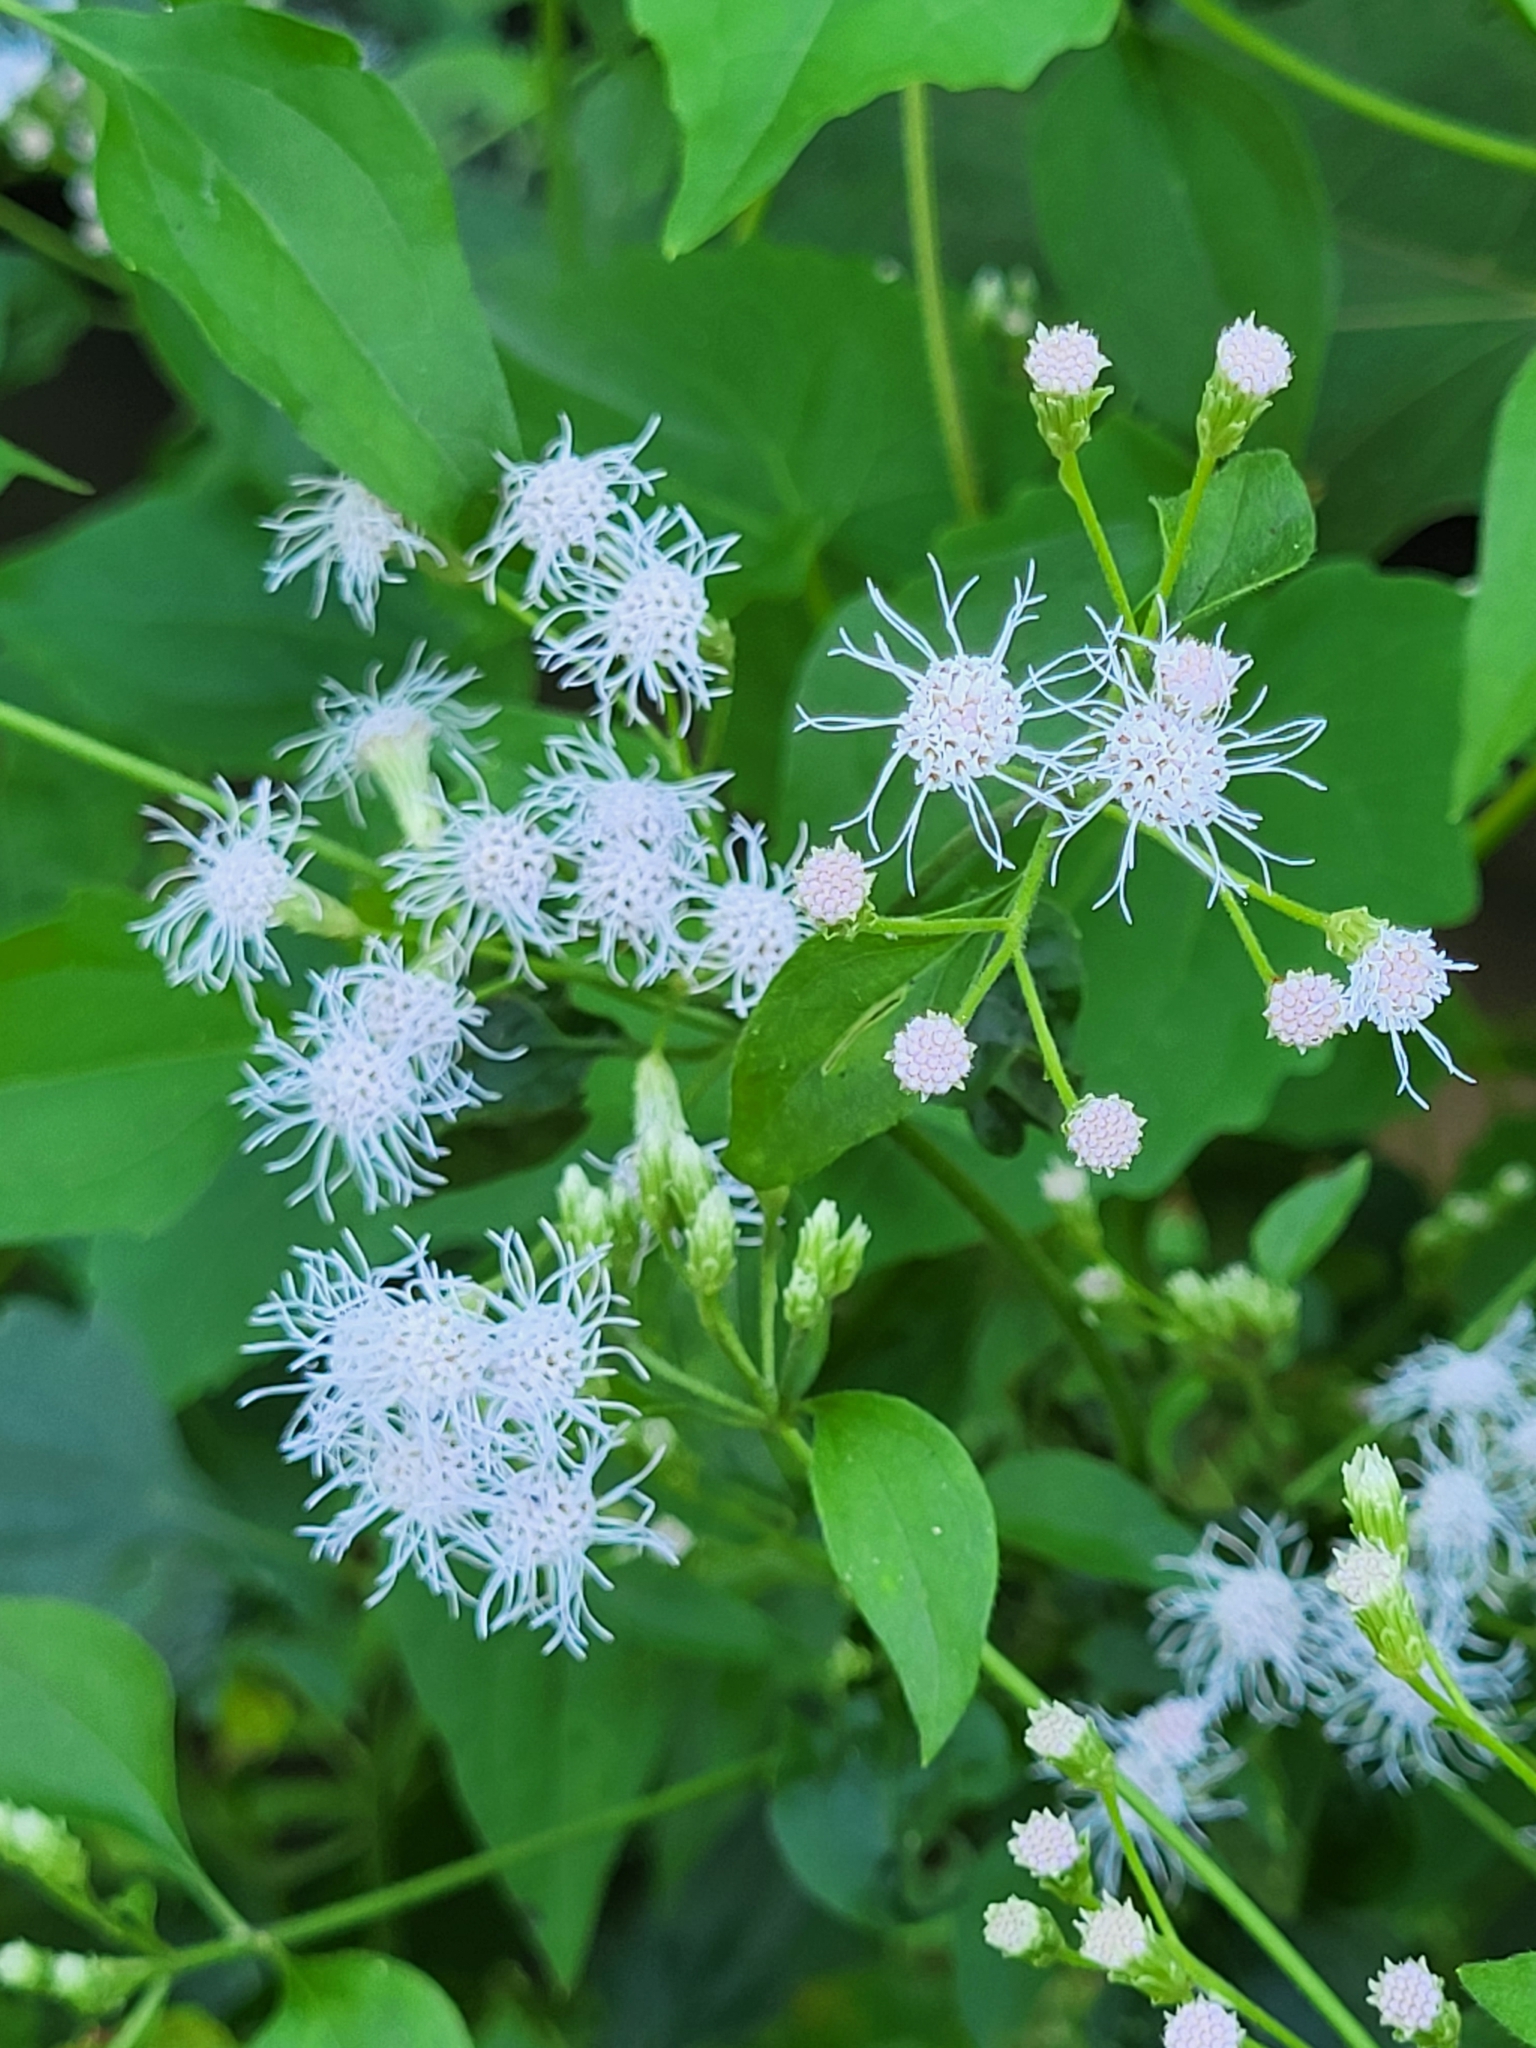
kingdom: Plantae
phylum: Tracheophyta
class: Magnoliopsida
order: Asterales
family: Asteraceae
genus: Chromolaena
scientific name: Chromolaena odorata
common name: Siamweed
